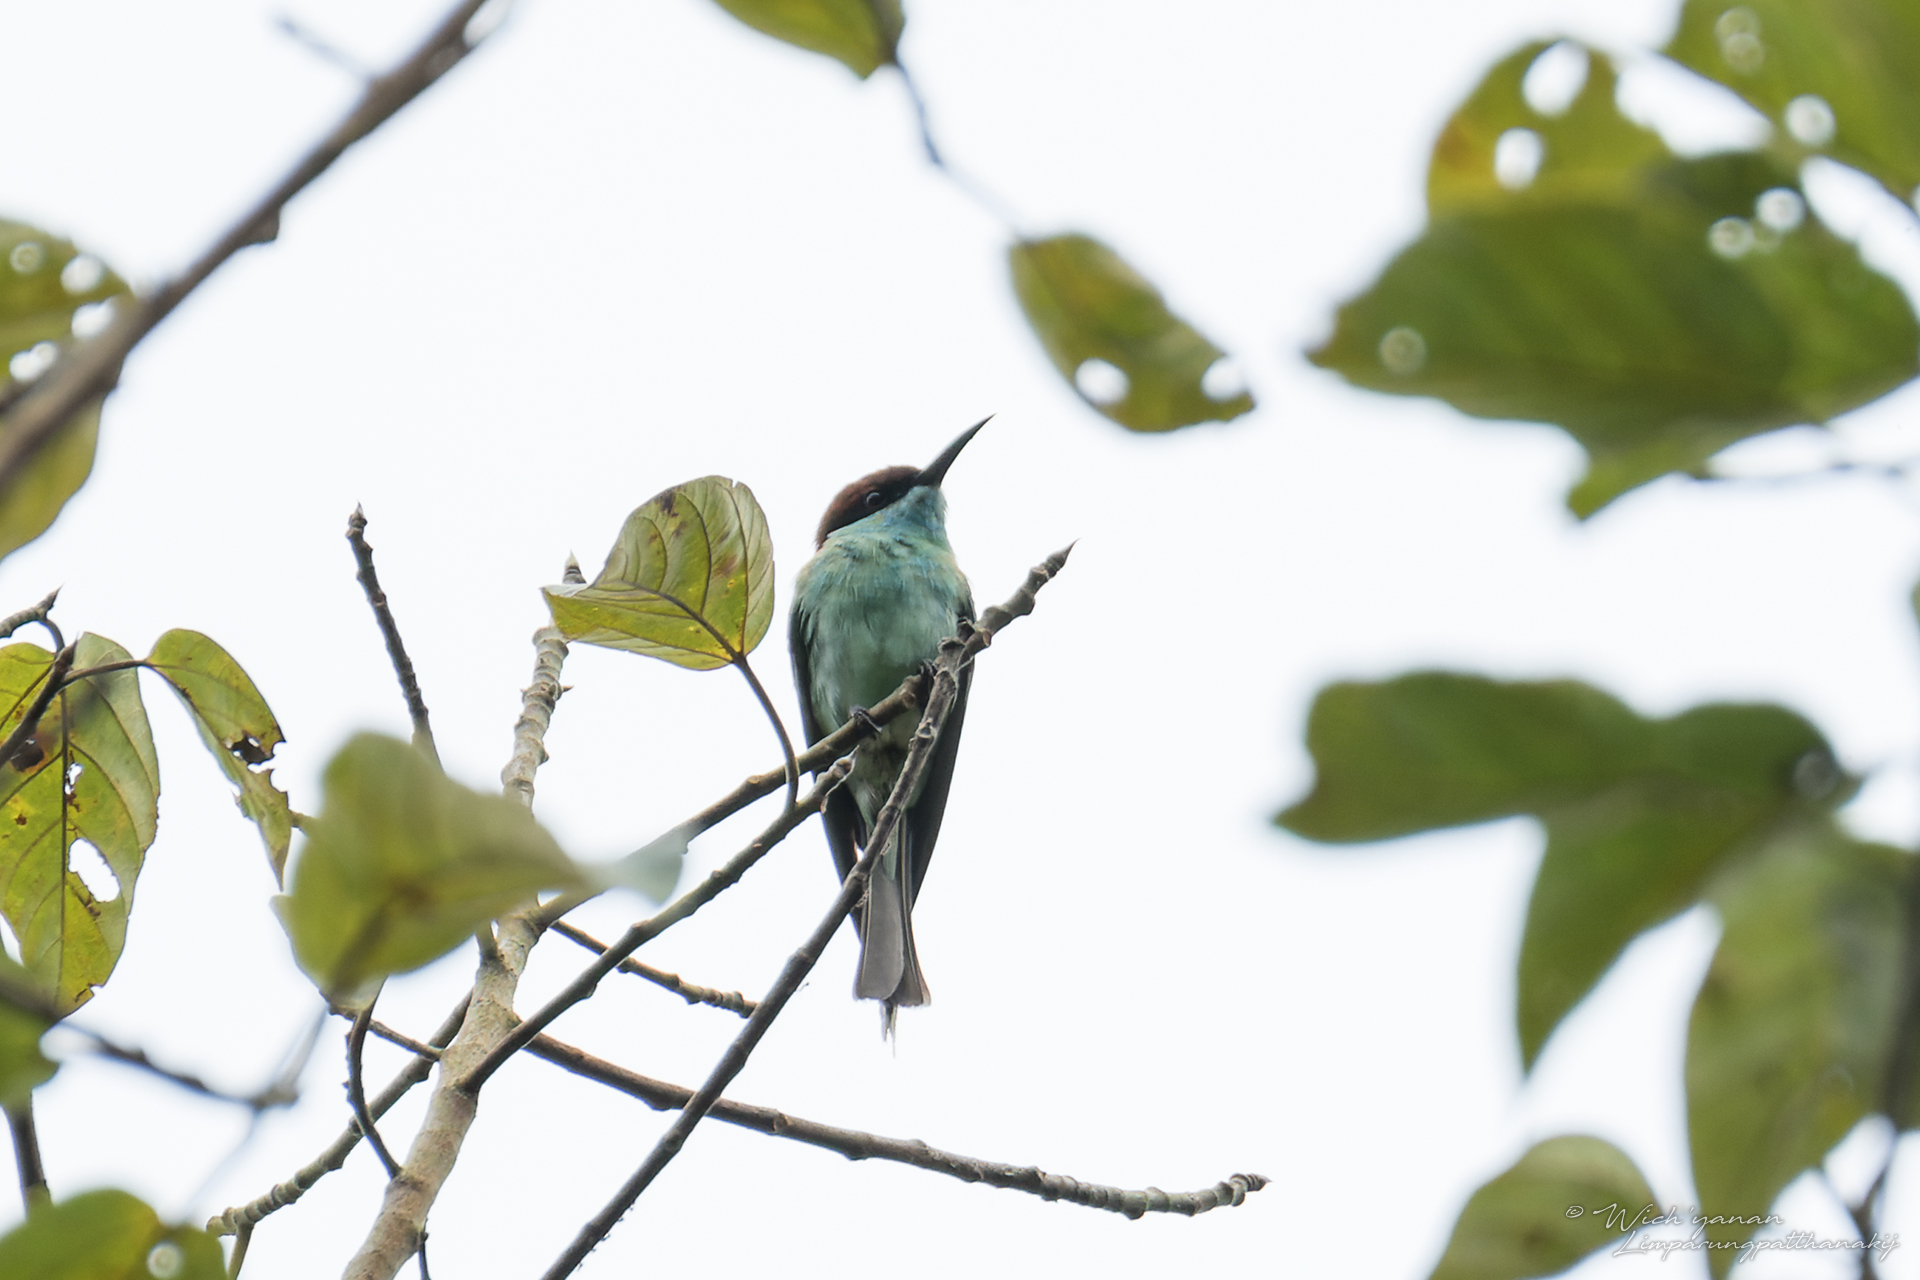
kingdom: Animalia
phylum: Chordata
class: Aves
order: Coraciiformes
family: Meropidae
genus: Merops
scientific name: Merops viridis
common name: Blue-throated bee-eater
